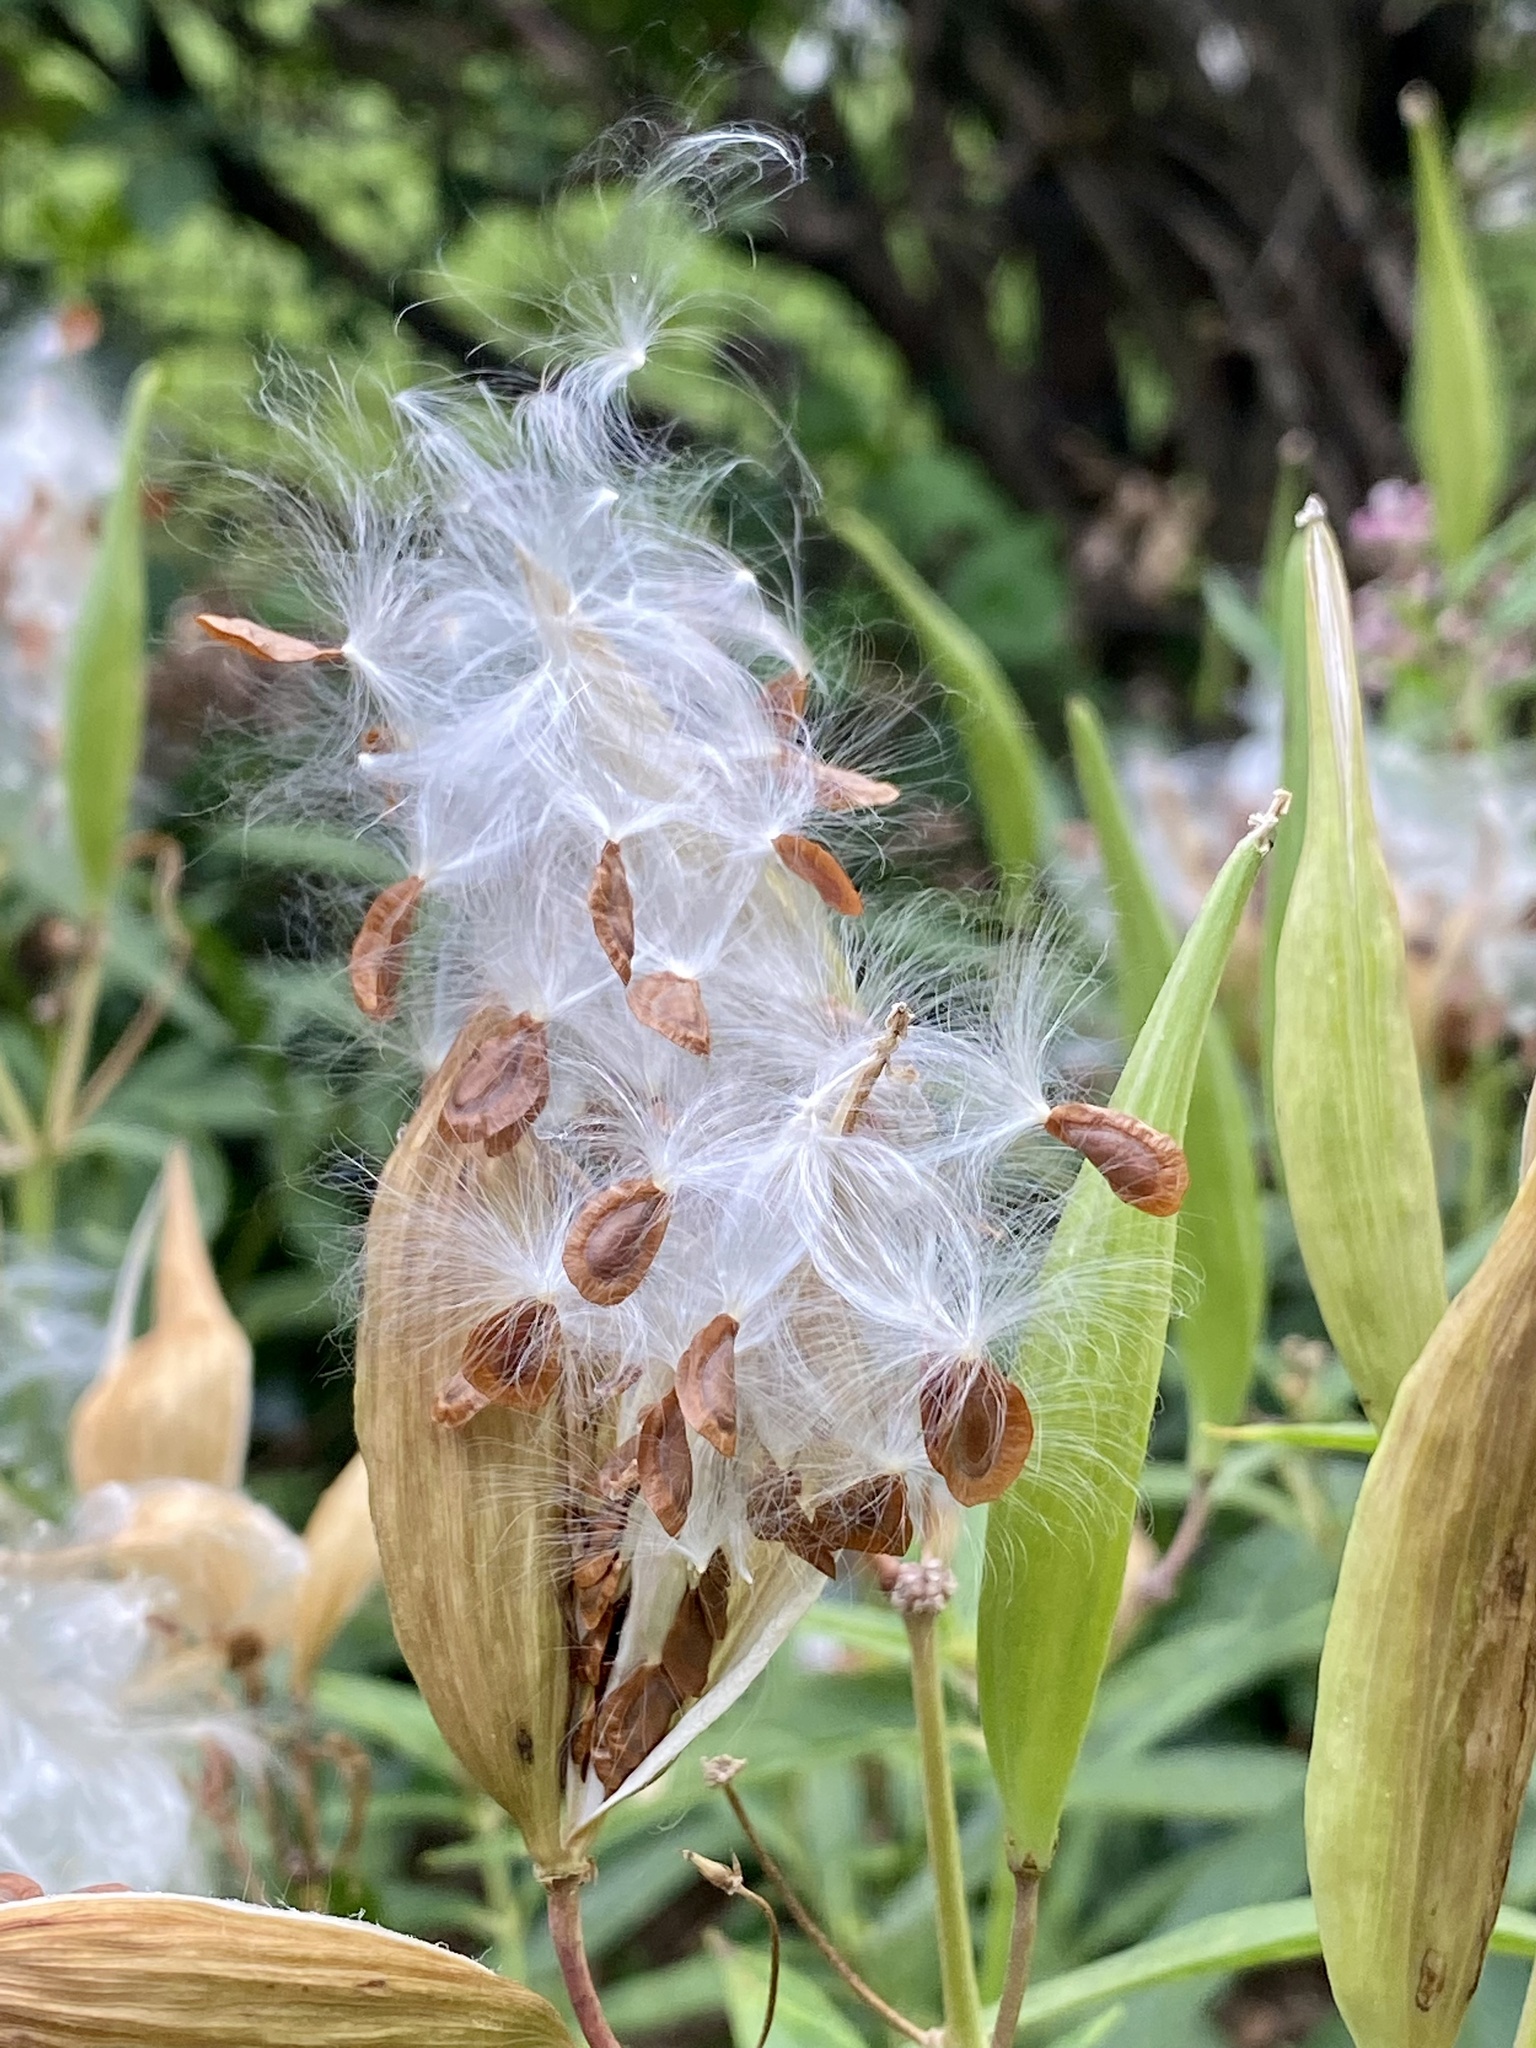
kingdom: Plantae
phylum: Tracheophyta
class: Magnoliopsida
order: Gentianales
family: Apocynaceae
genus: Asclepias
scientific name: Asclepias incarnata
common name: Swamp milkweed
